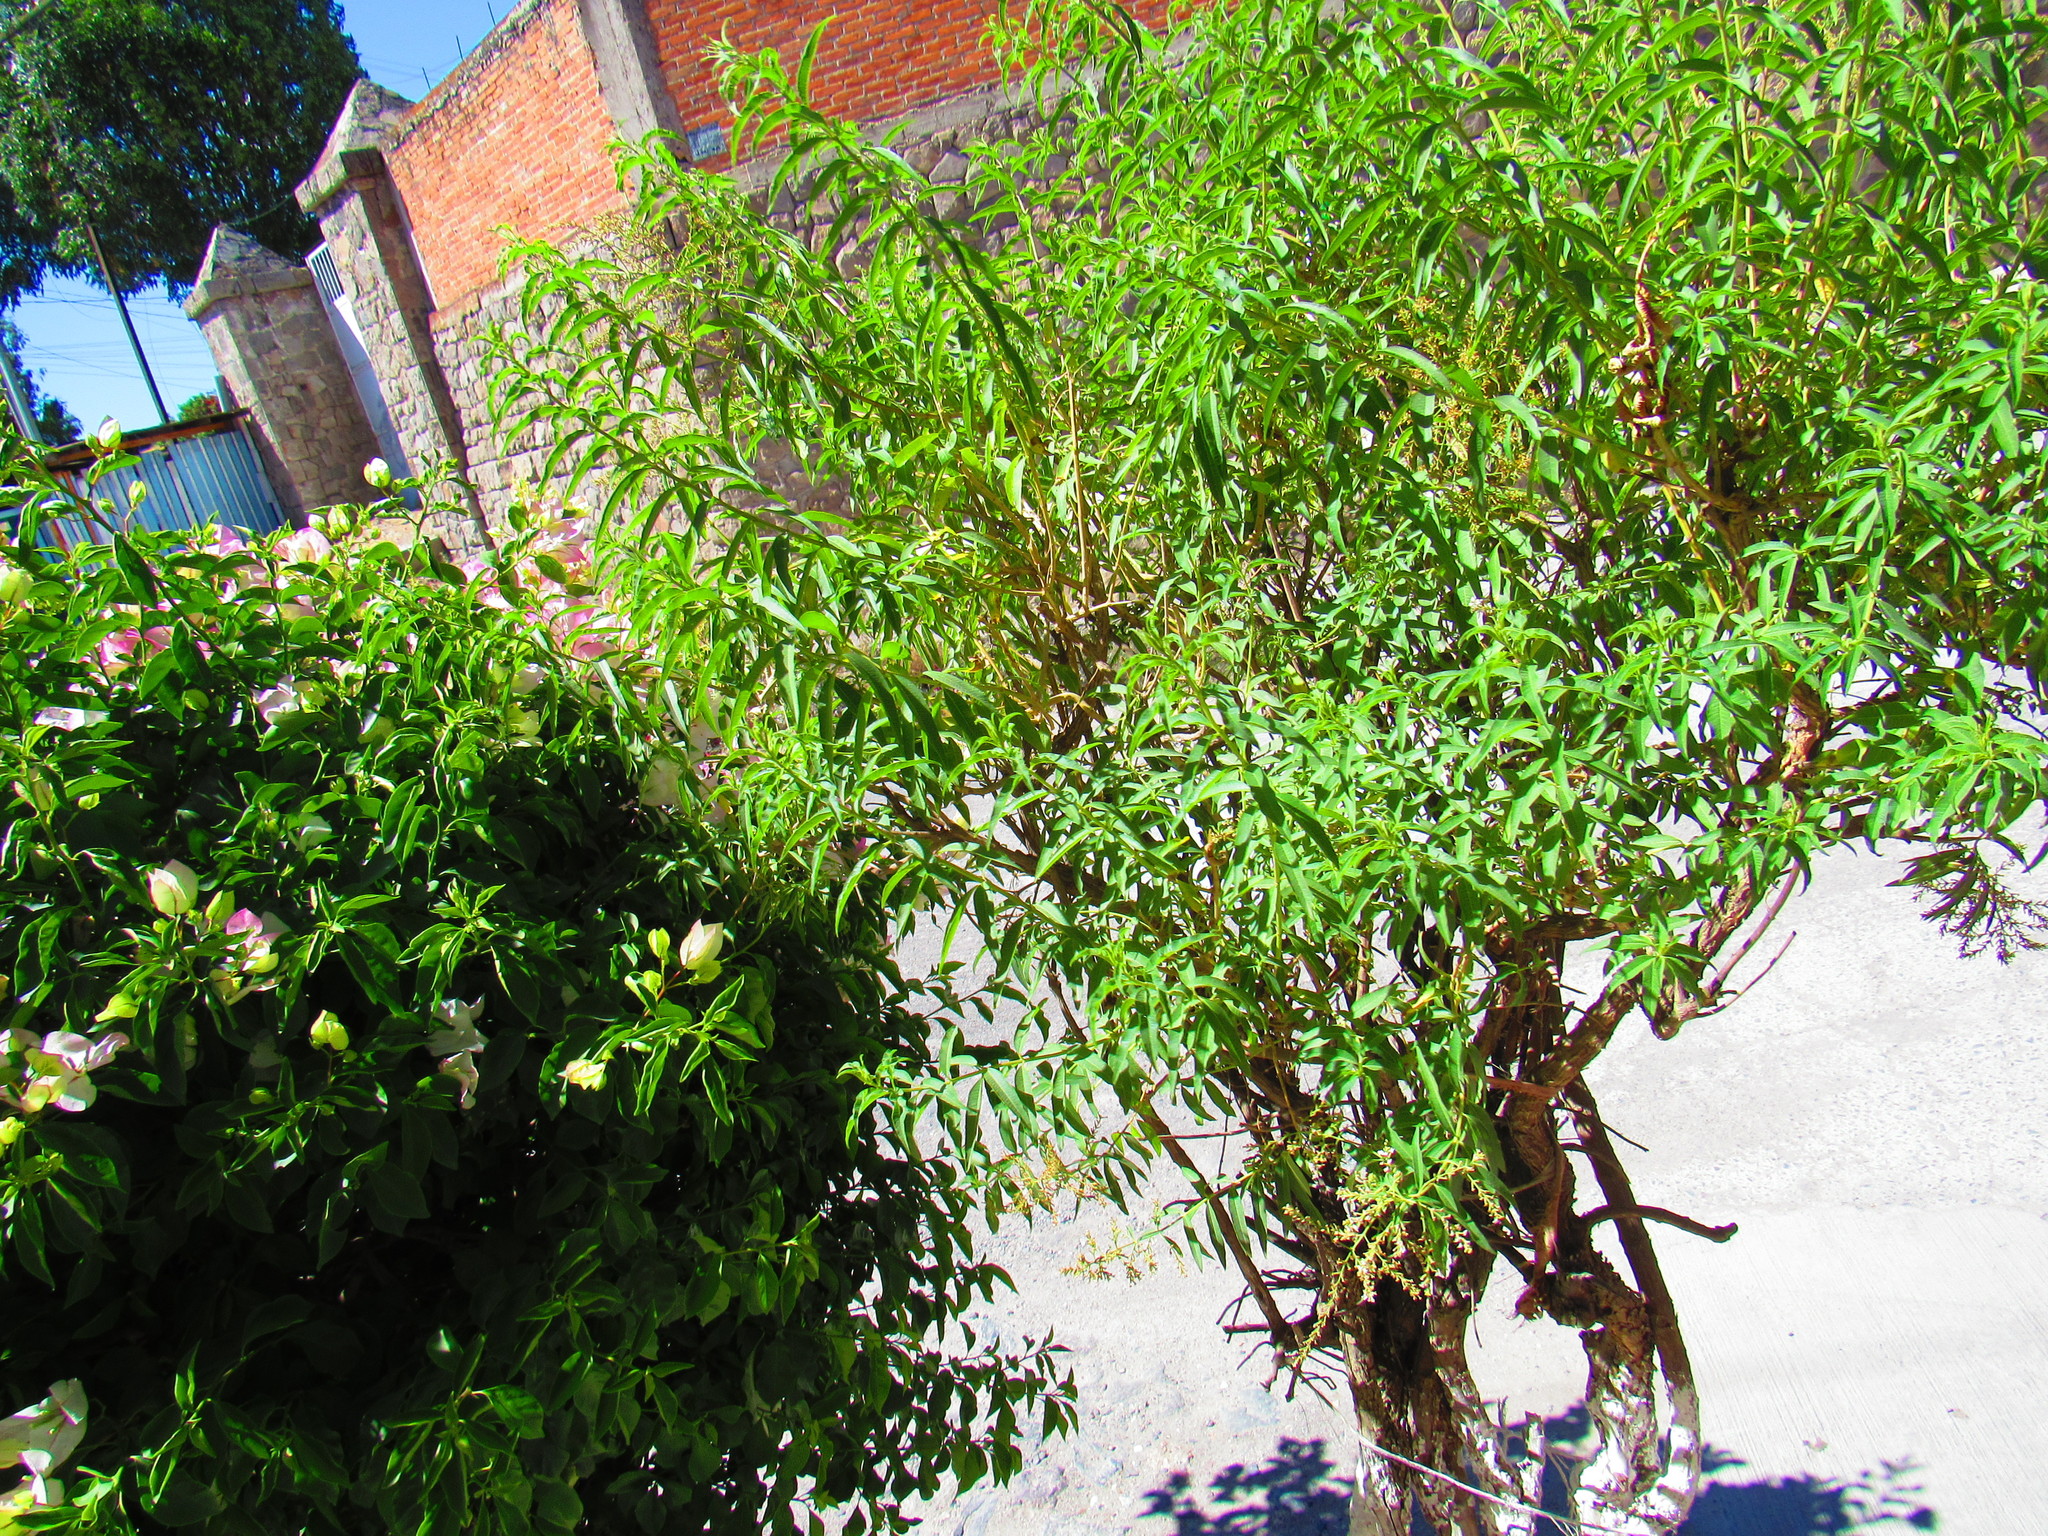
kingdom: Plantae
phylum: Tracheophyta
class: Magnoliopsida
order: Lamiales
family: Verbenaceae
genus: Aloysia
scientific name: Aloysia citrodora
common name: Lemon beebrush
